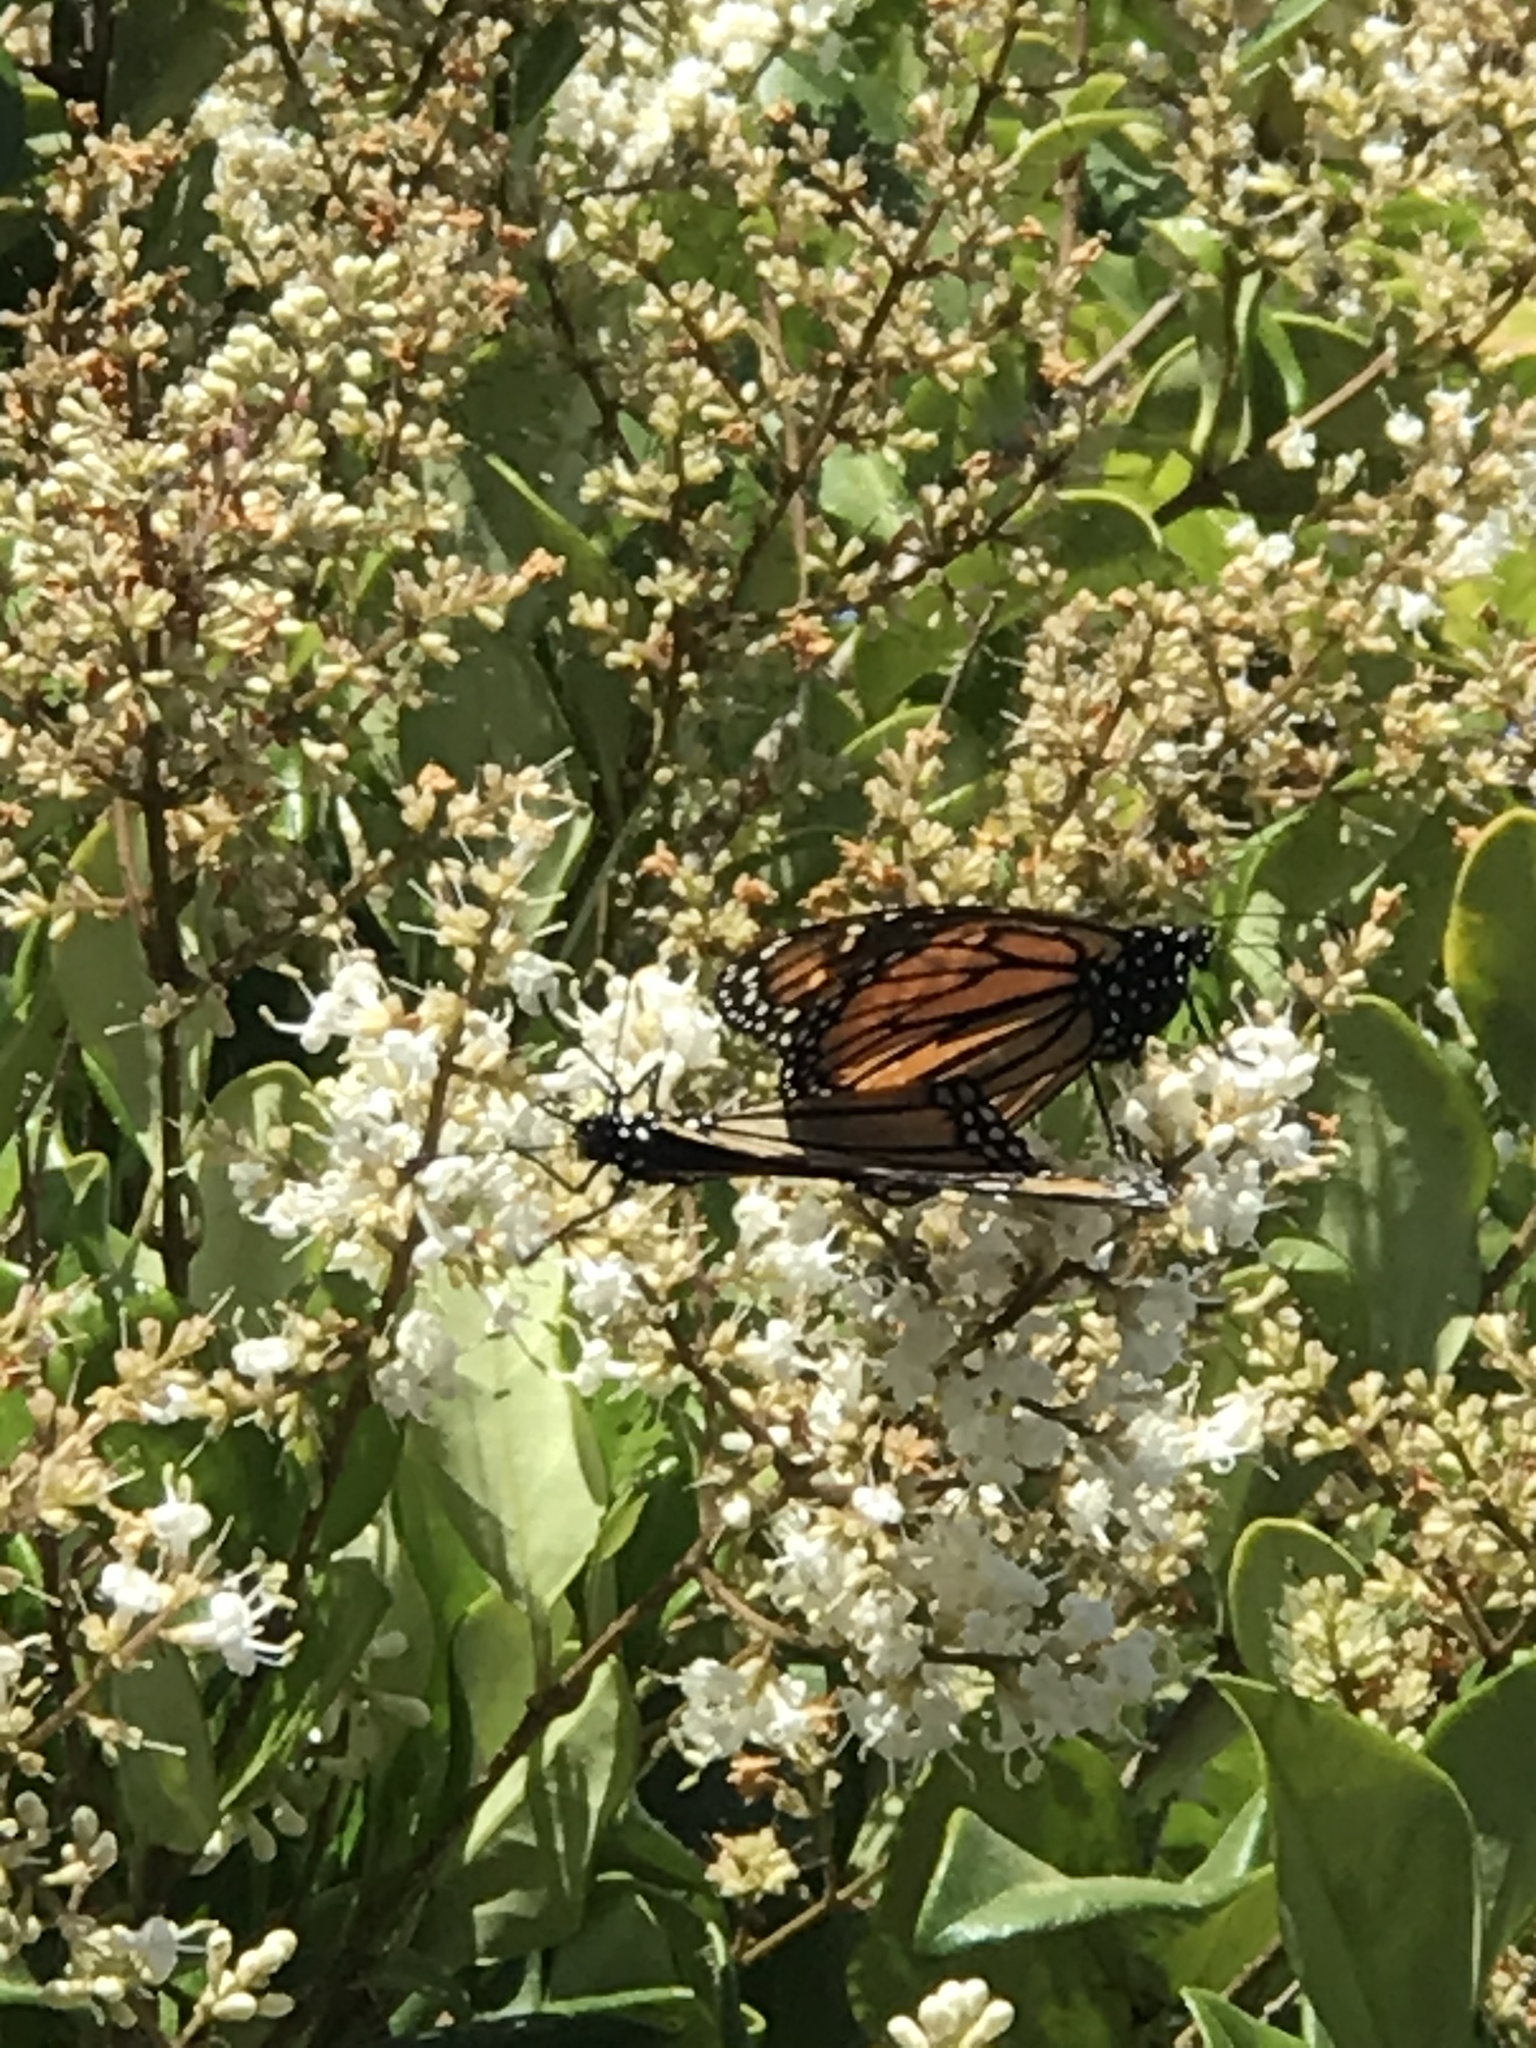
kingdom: Animalia
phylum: Arthropoda
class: Insecta
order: Lepidoptera
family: Nymphalidae
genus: Danaus
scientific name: Danaus plexippus
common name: Monarch
